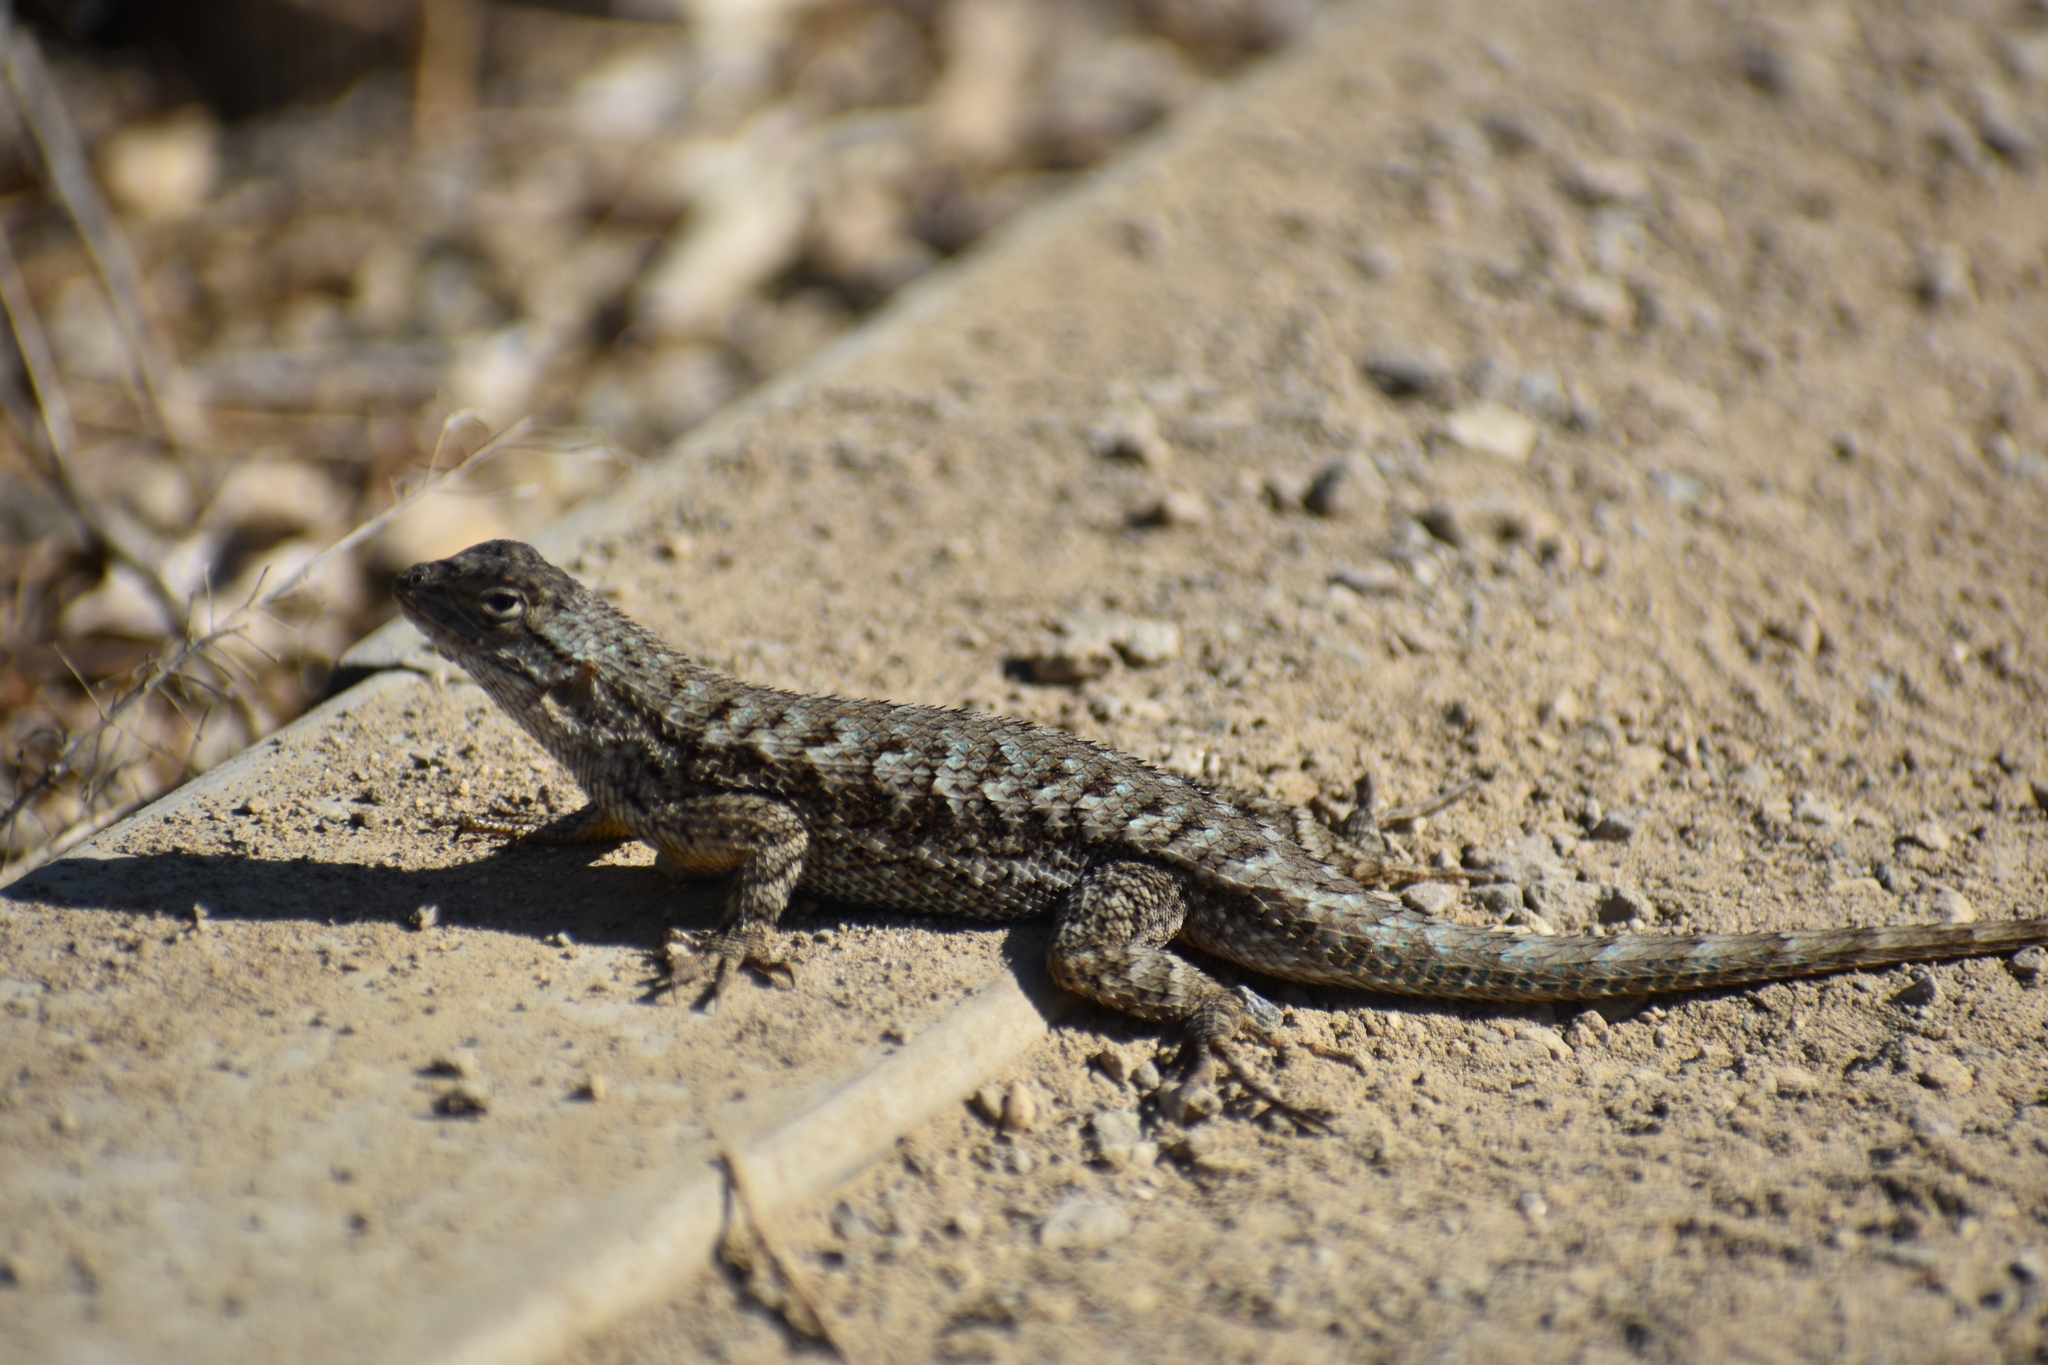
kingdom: Animalia
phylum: Chordata
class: Squamata
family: Phrynosomatidae
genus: Sceloporus
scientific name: Sceloporus occidentalis
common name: Western fence lizard
